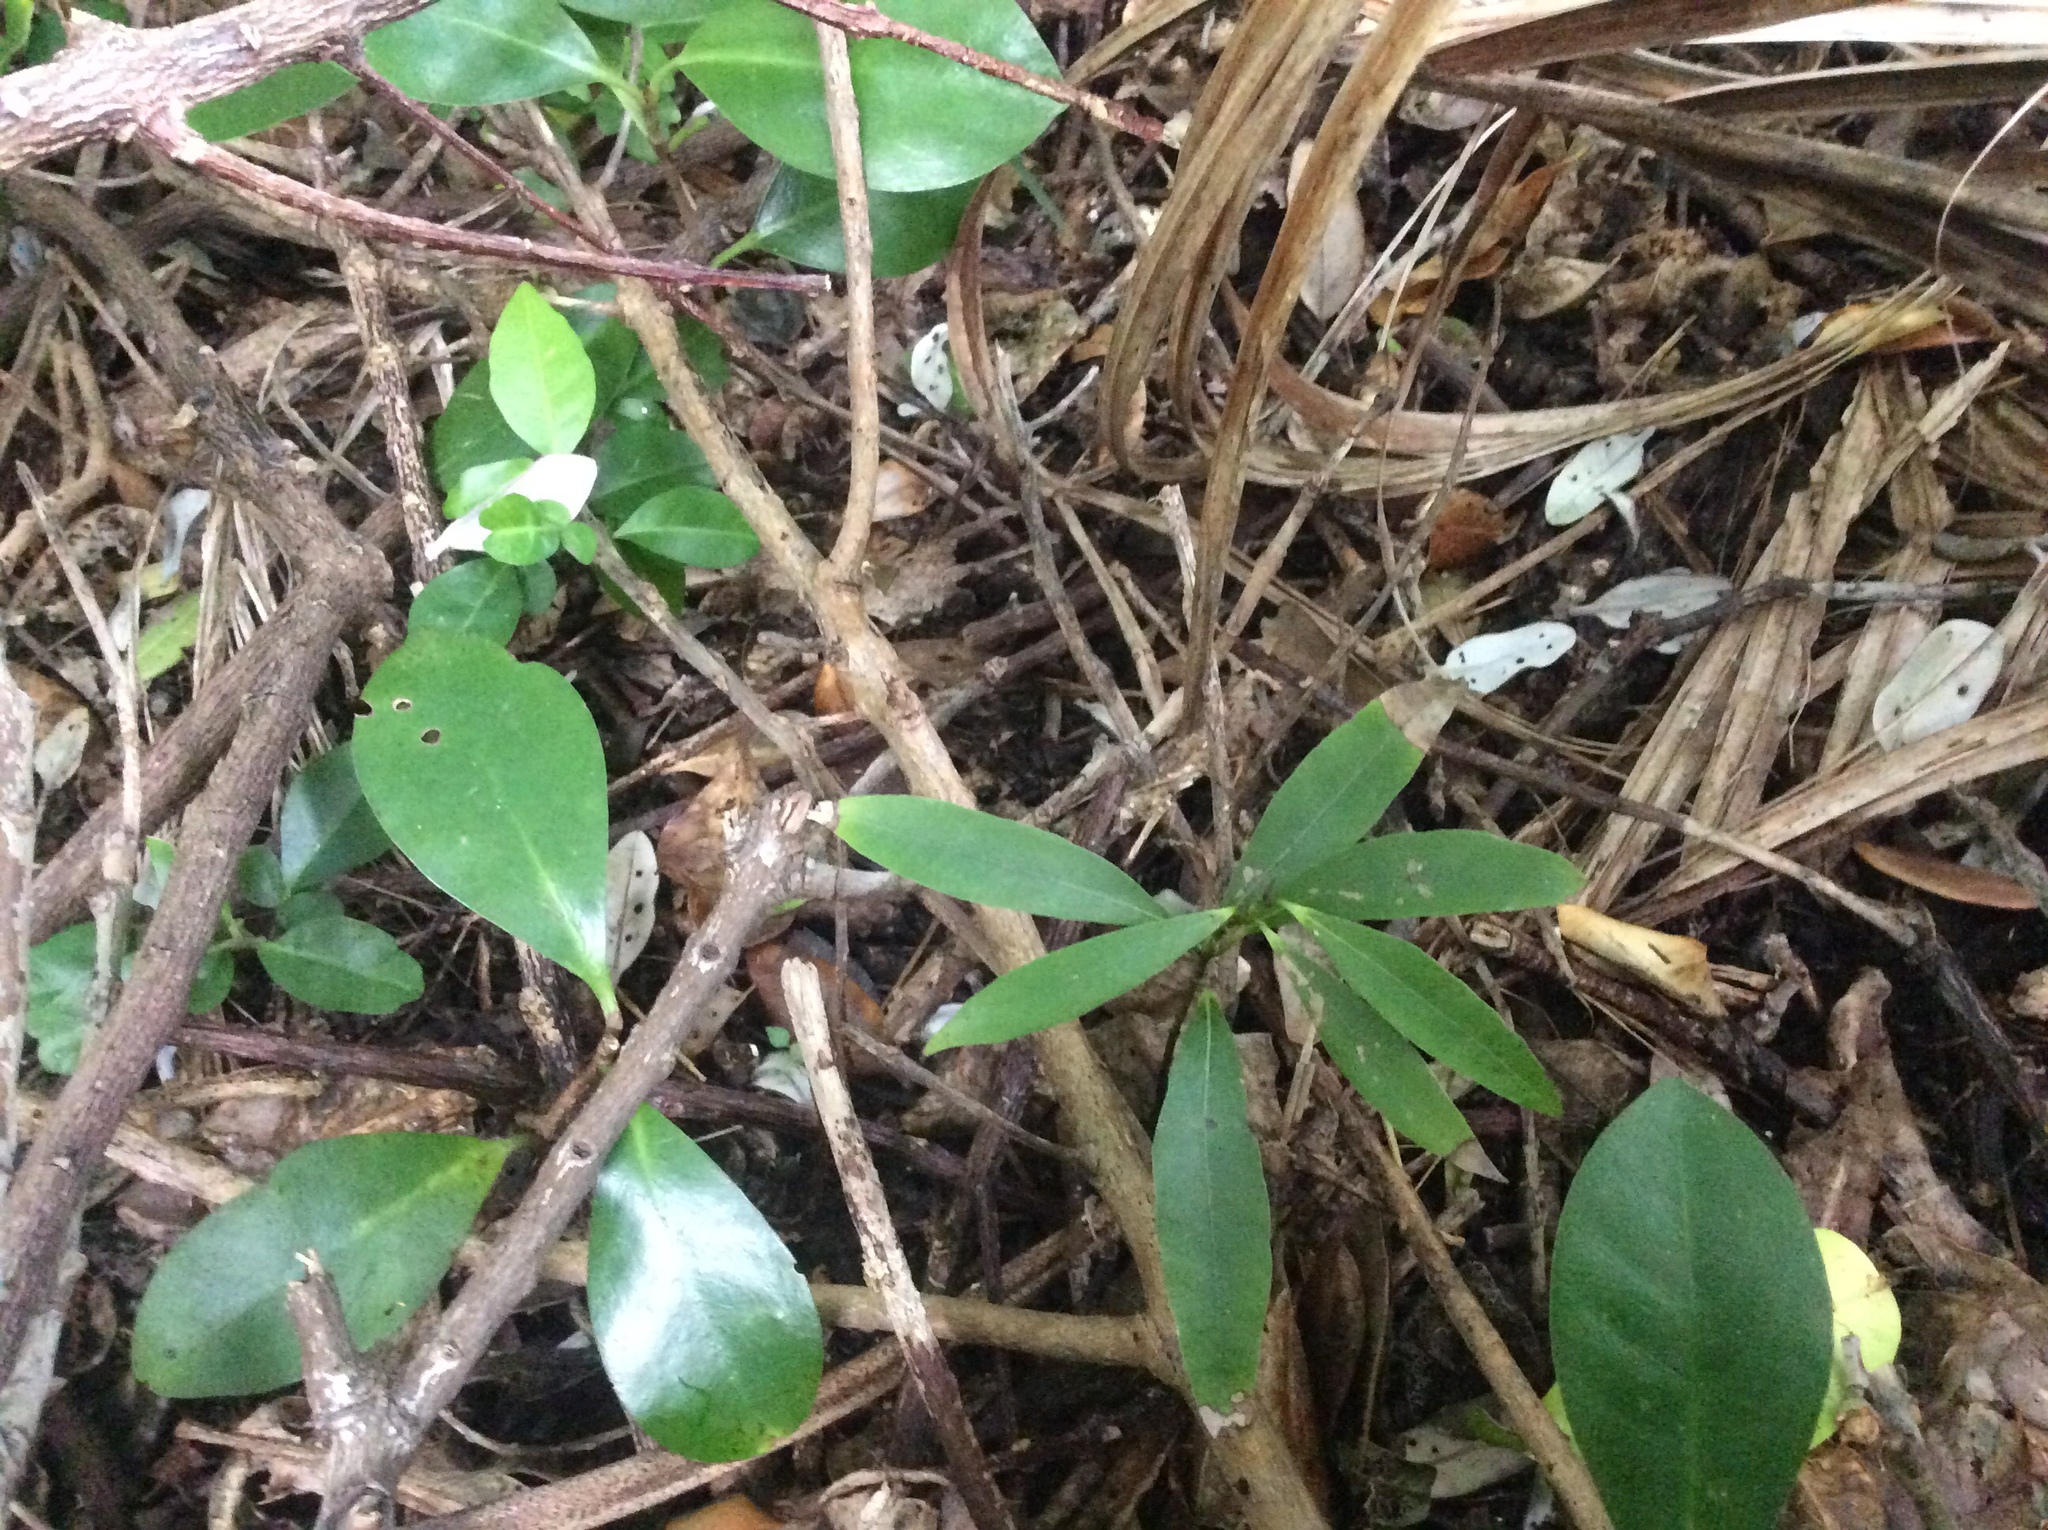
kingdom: Plantae
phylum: Tracheophyta
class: Magnoliopsida
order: Laurales
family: Lauraceae
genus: Beilschmiedia
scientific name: Beilschmiedia tawa
